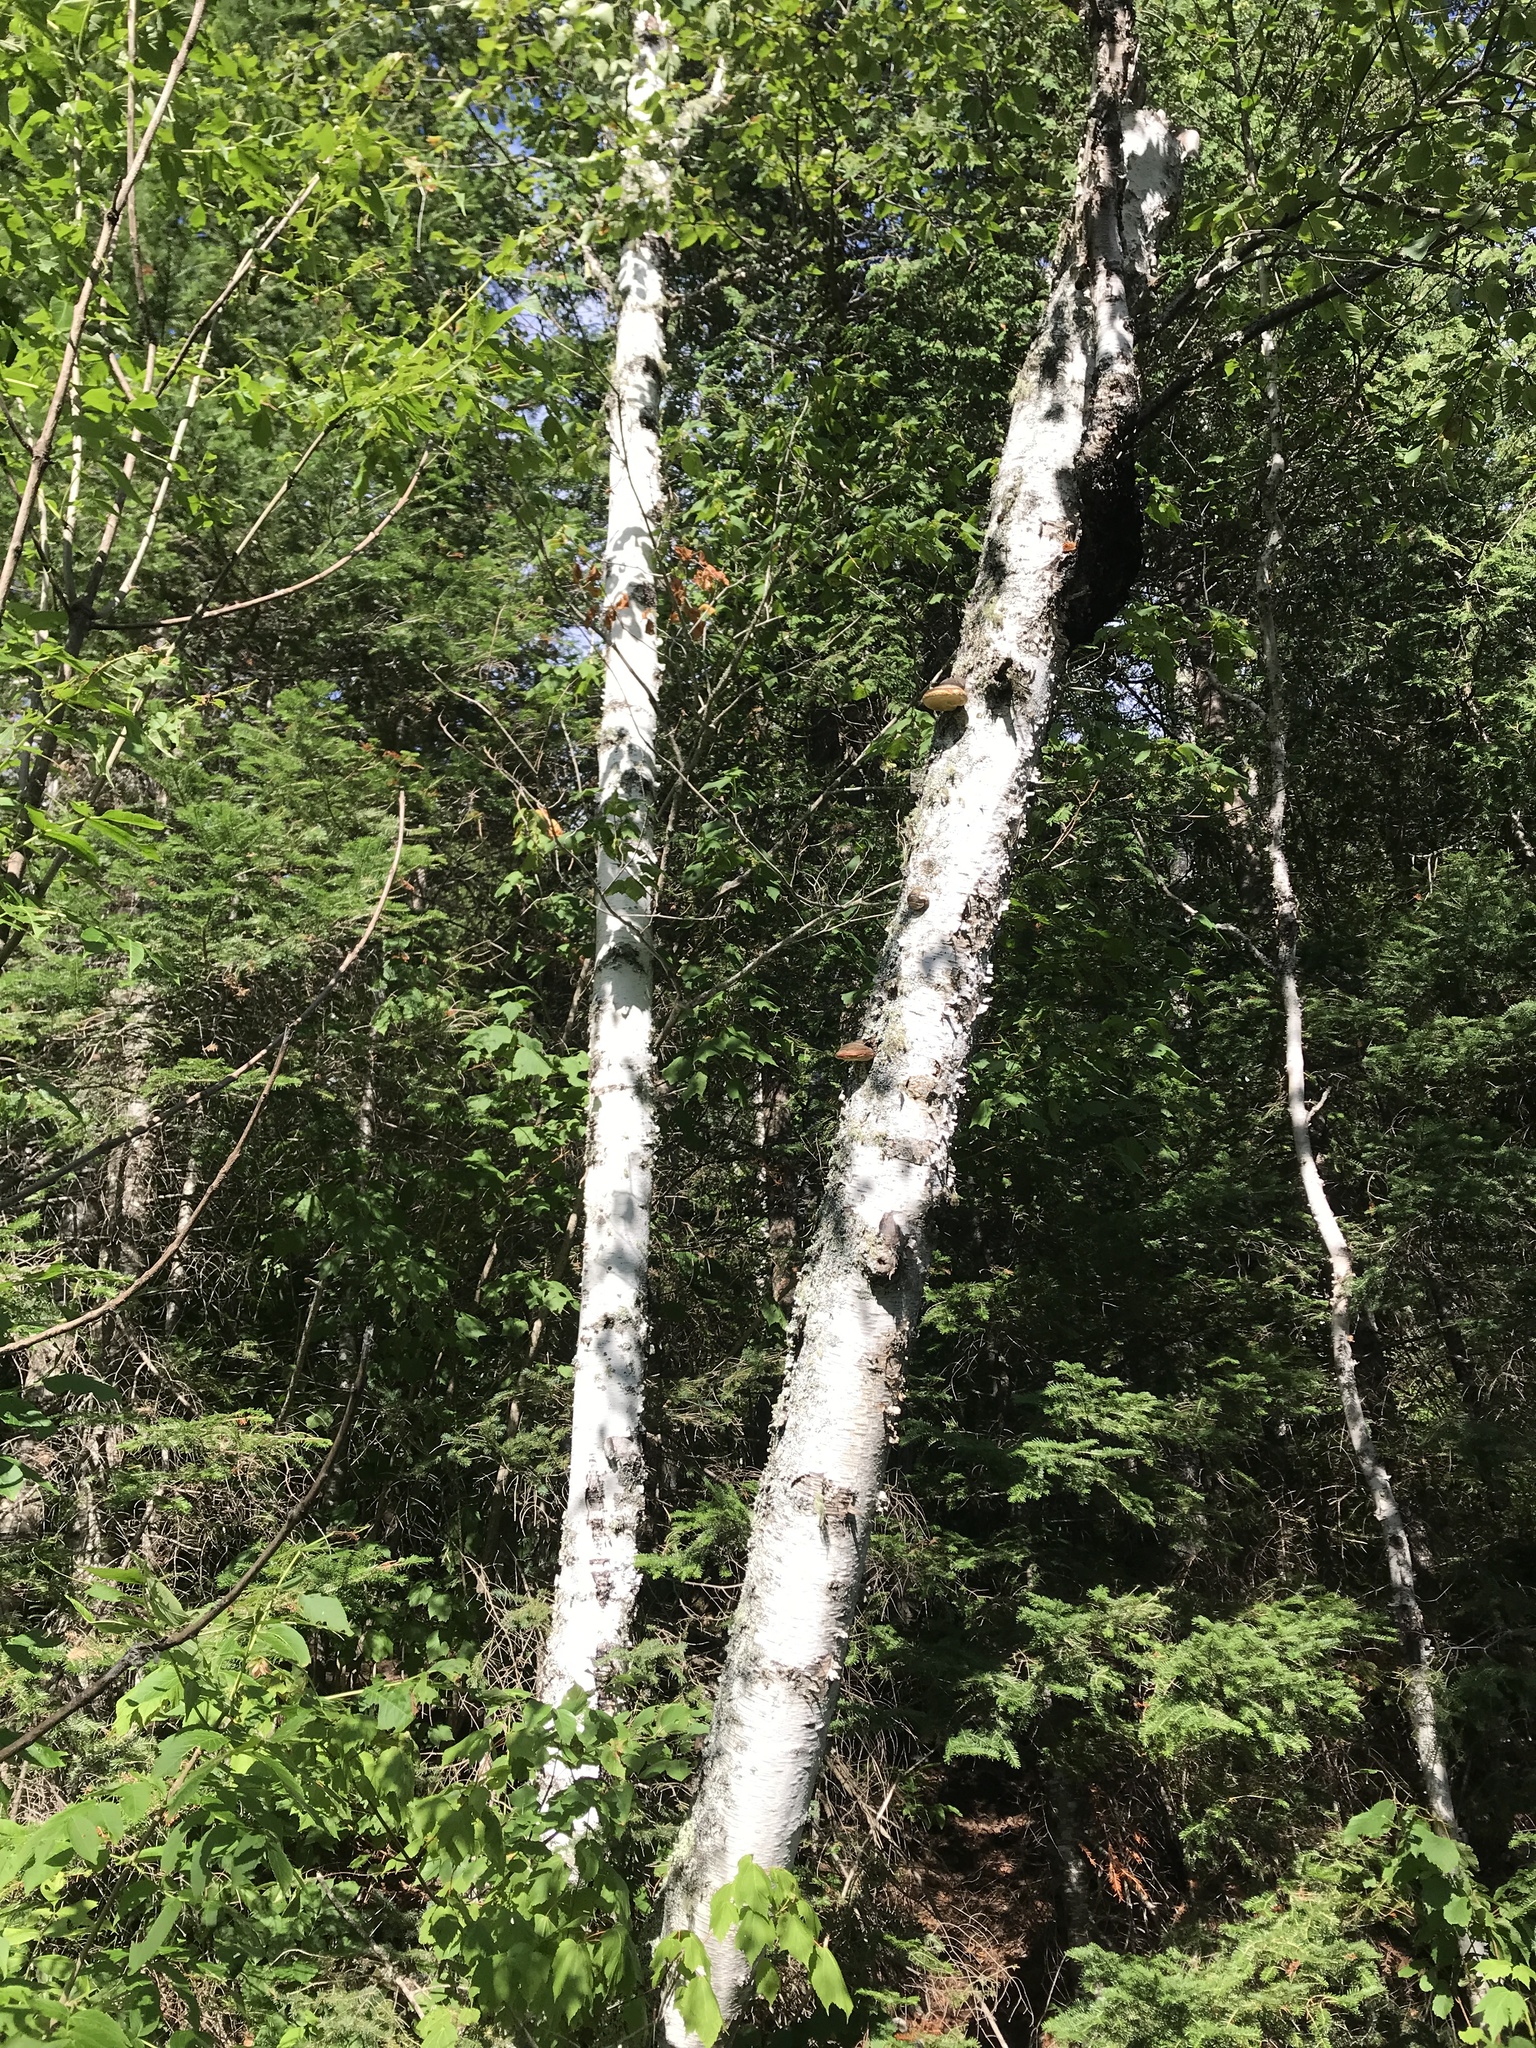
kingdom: Plantae
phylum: Tracheophyta
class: Magnoliopsida
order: Fagales
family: Betulaceae
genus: Betula
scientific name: Betula papyrifera
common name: Paper birch
